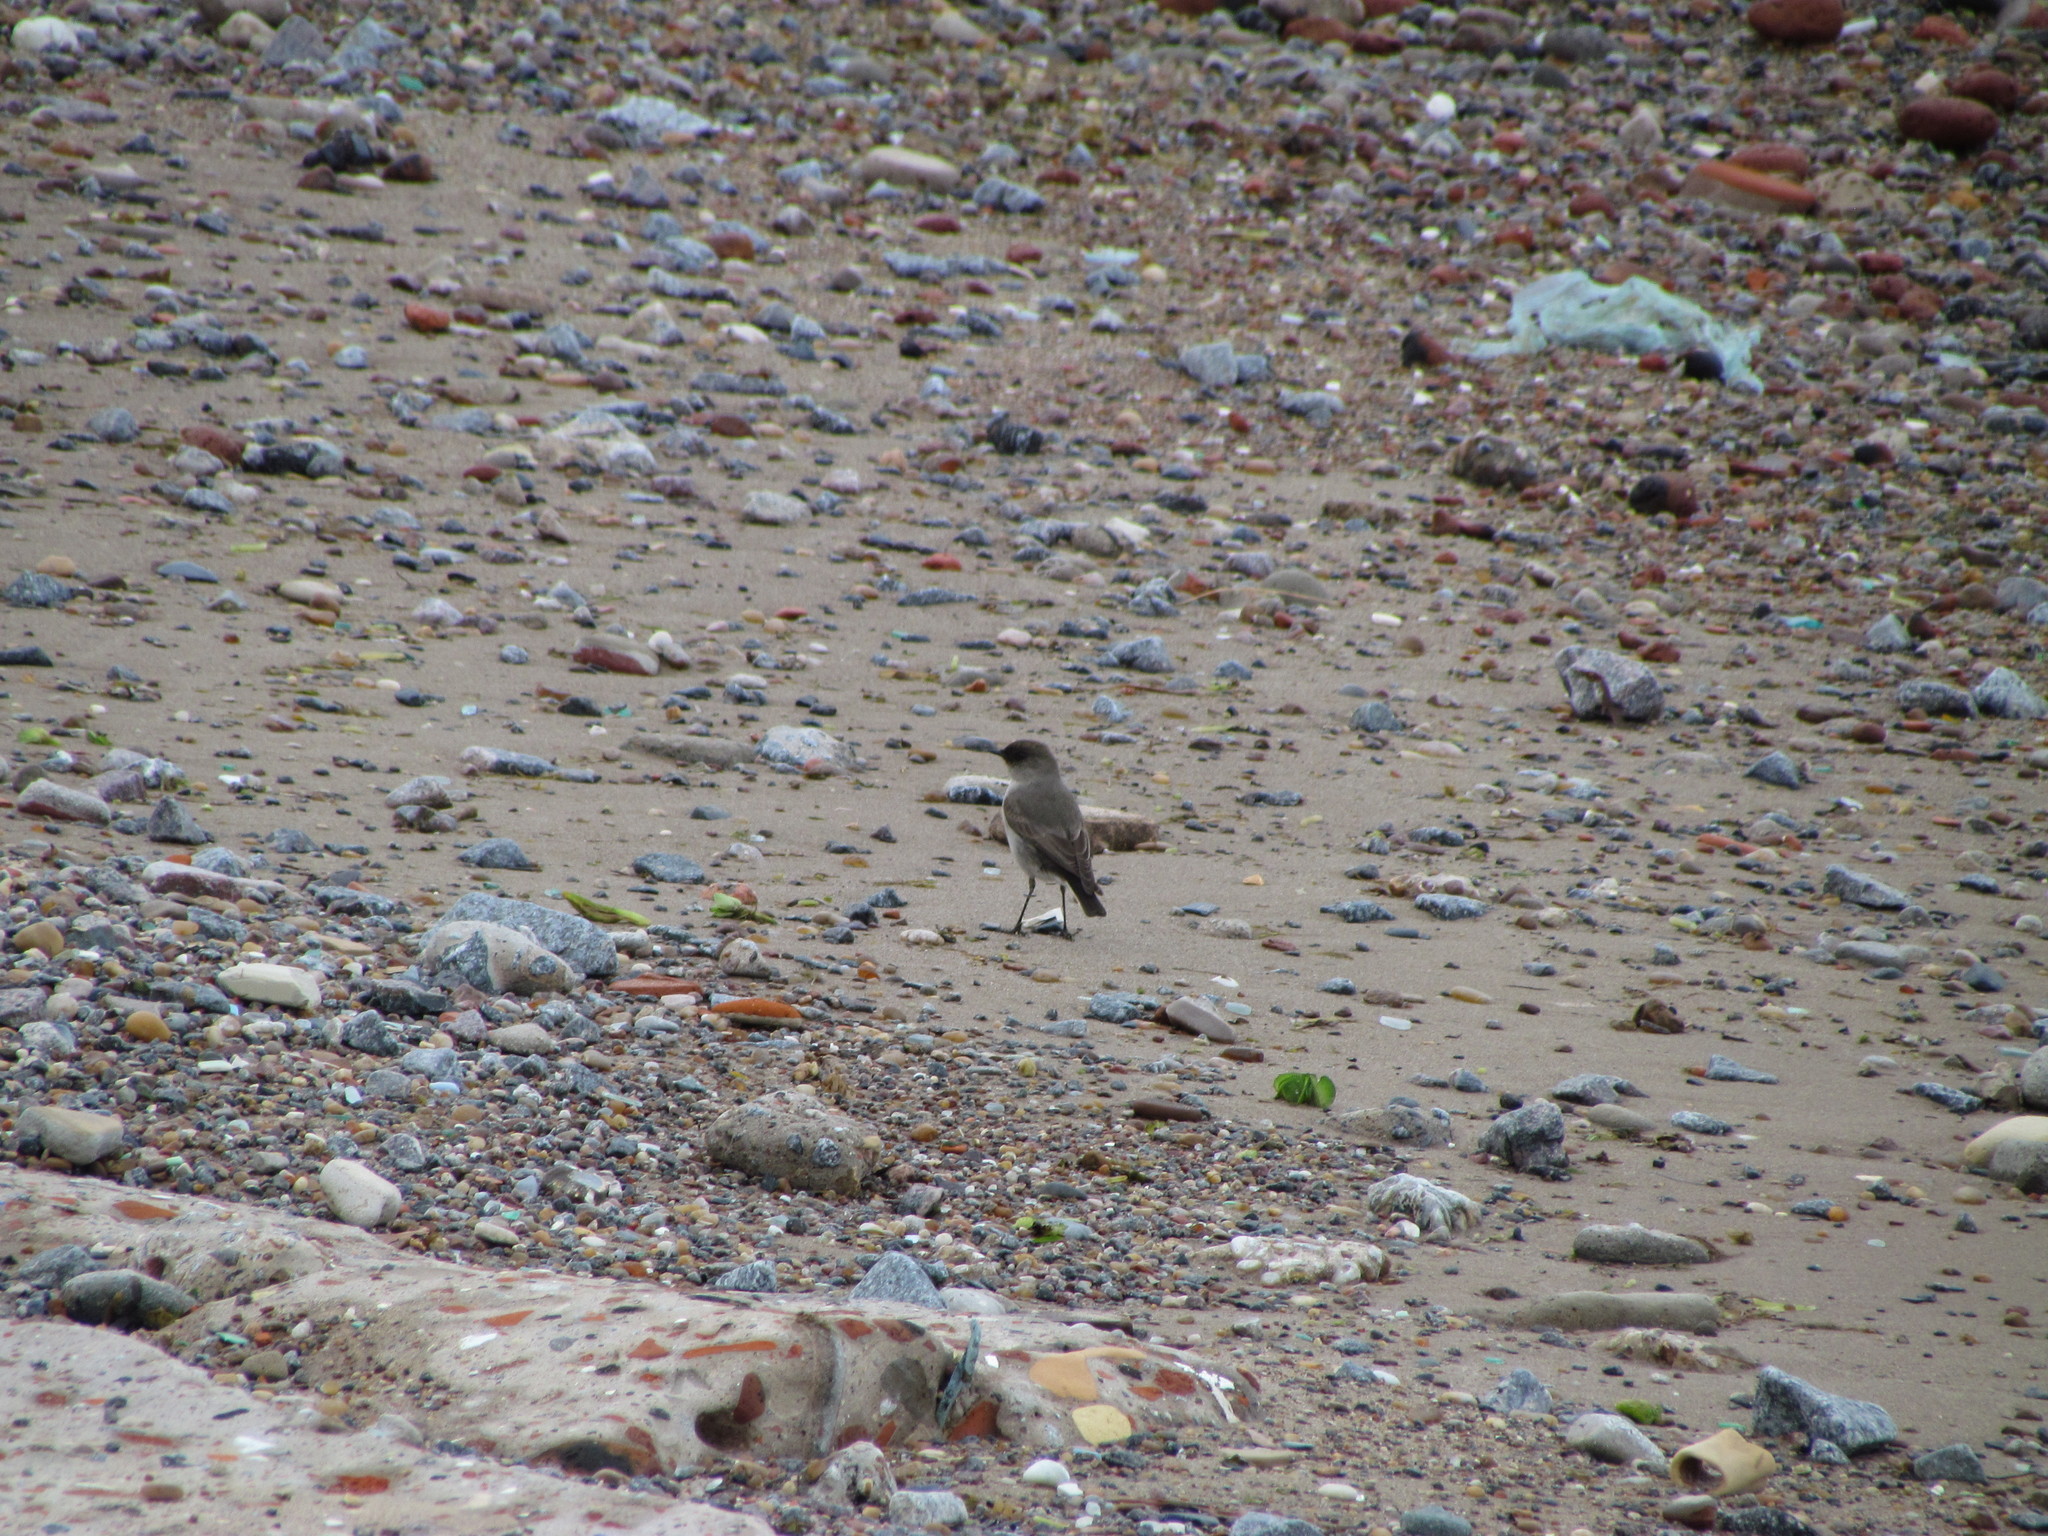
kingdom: Animalia
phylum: Chordata
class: Aves
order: Passeriformes
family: Tyrannidae
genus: Muscisaxicola
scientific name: Muscisaxicola maclovianus
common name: Dark-faced ground tyrant
